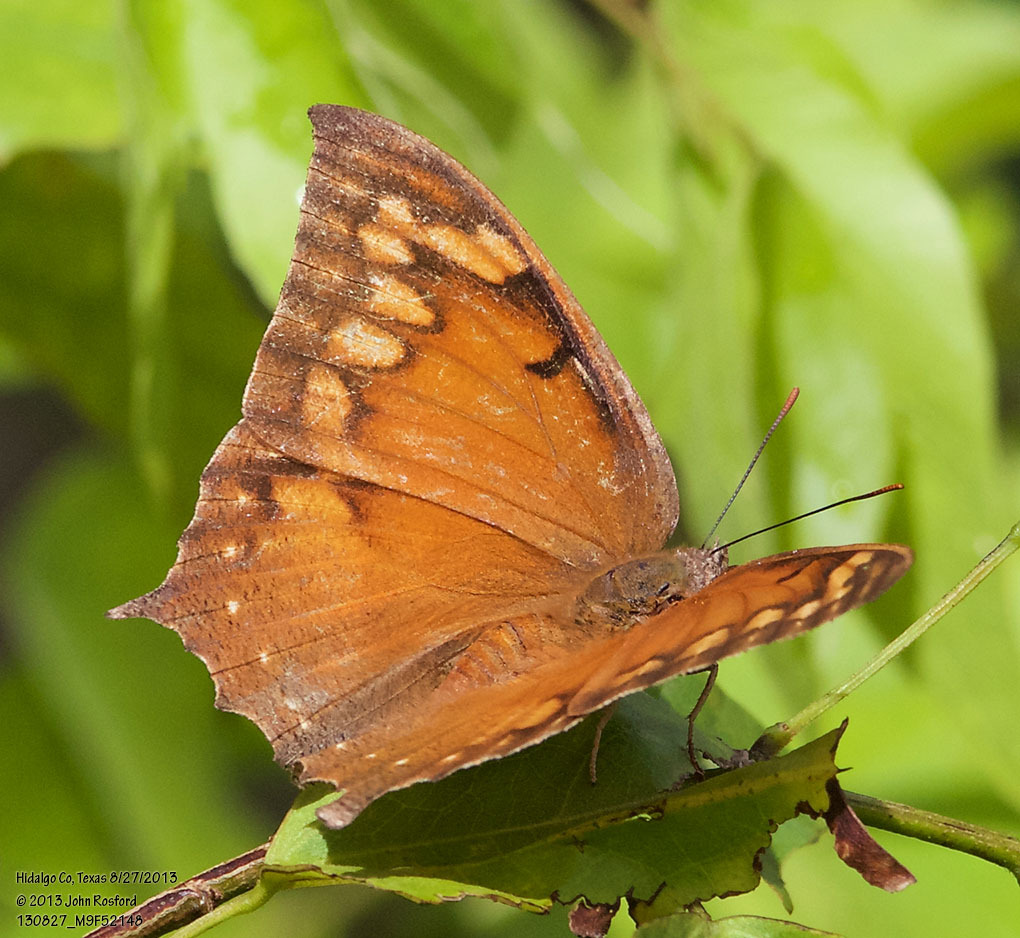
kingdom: Animalia
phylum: Arthropoda
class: Insecta
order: Lepidoptera
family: Nymphalidae
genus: Anaea
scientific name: Anaea aidea
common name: Tropical leafwing
